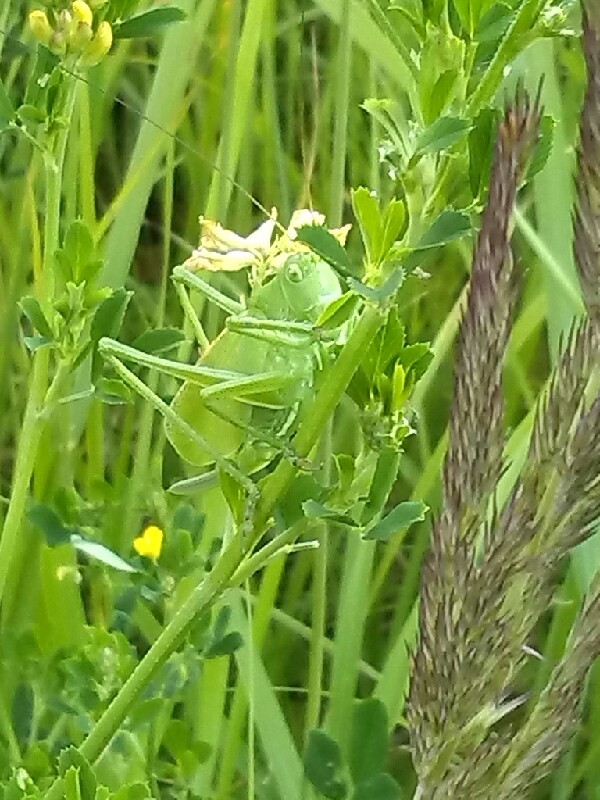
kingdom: Animalia
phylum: Arthropoda
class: Insecta
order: Orthoptera
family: Tettigoniidae
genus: Tettigonia
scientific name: Tettigonia cantans
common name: Upland green bush-cricket
